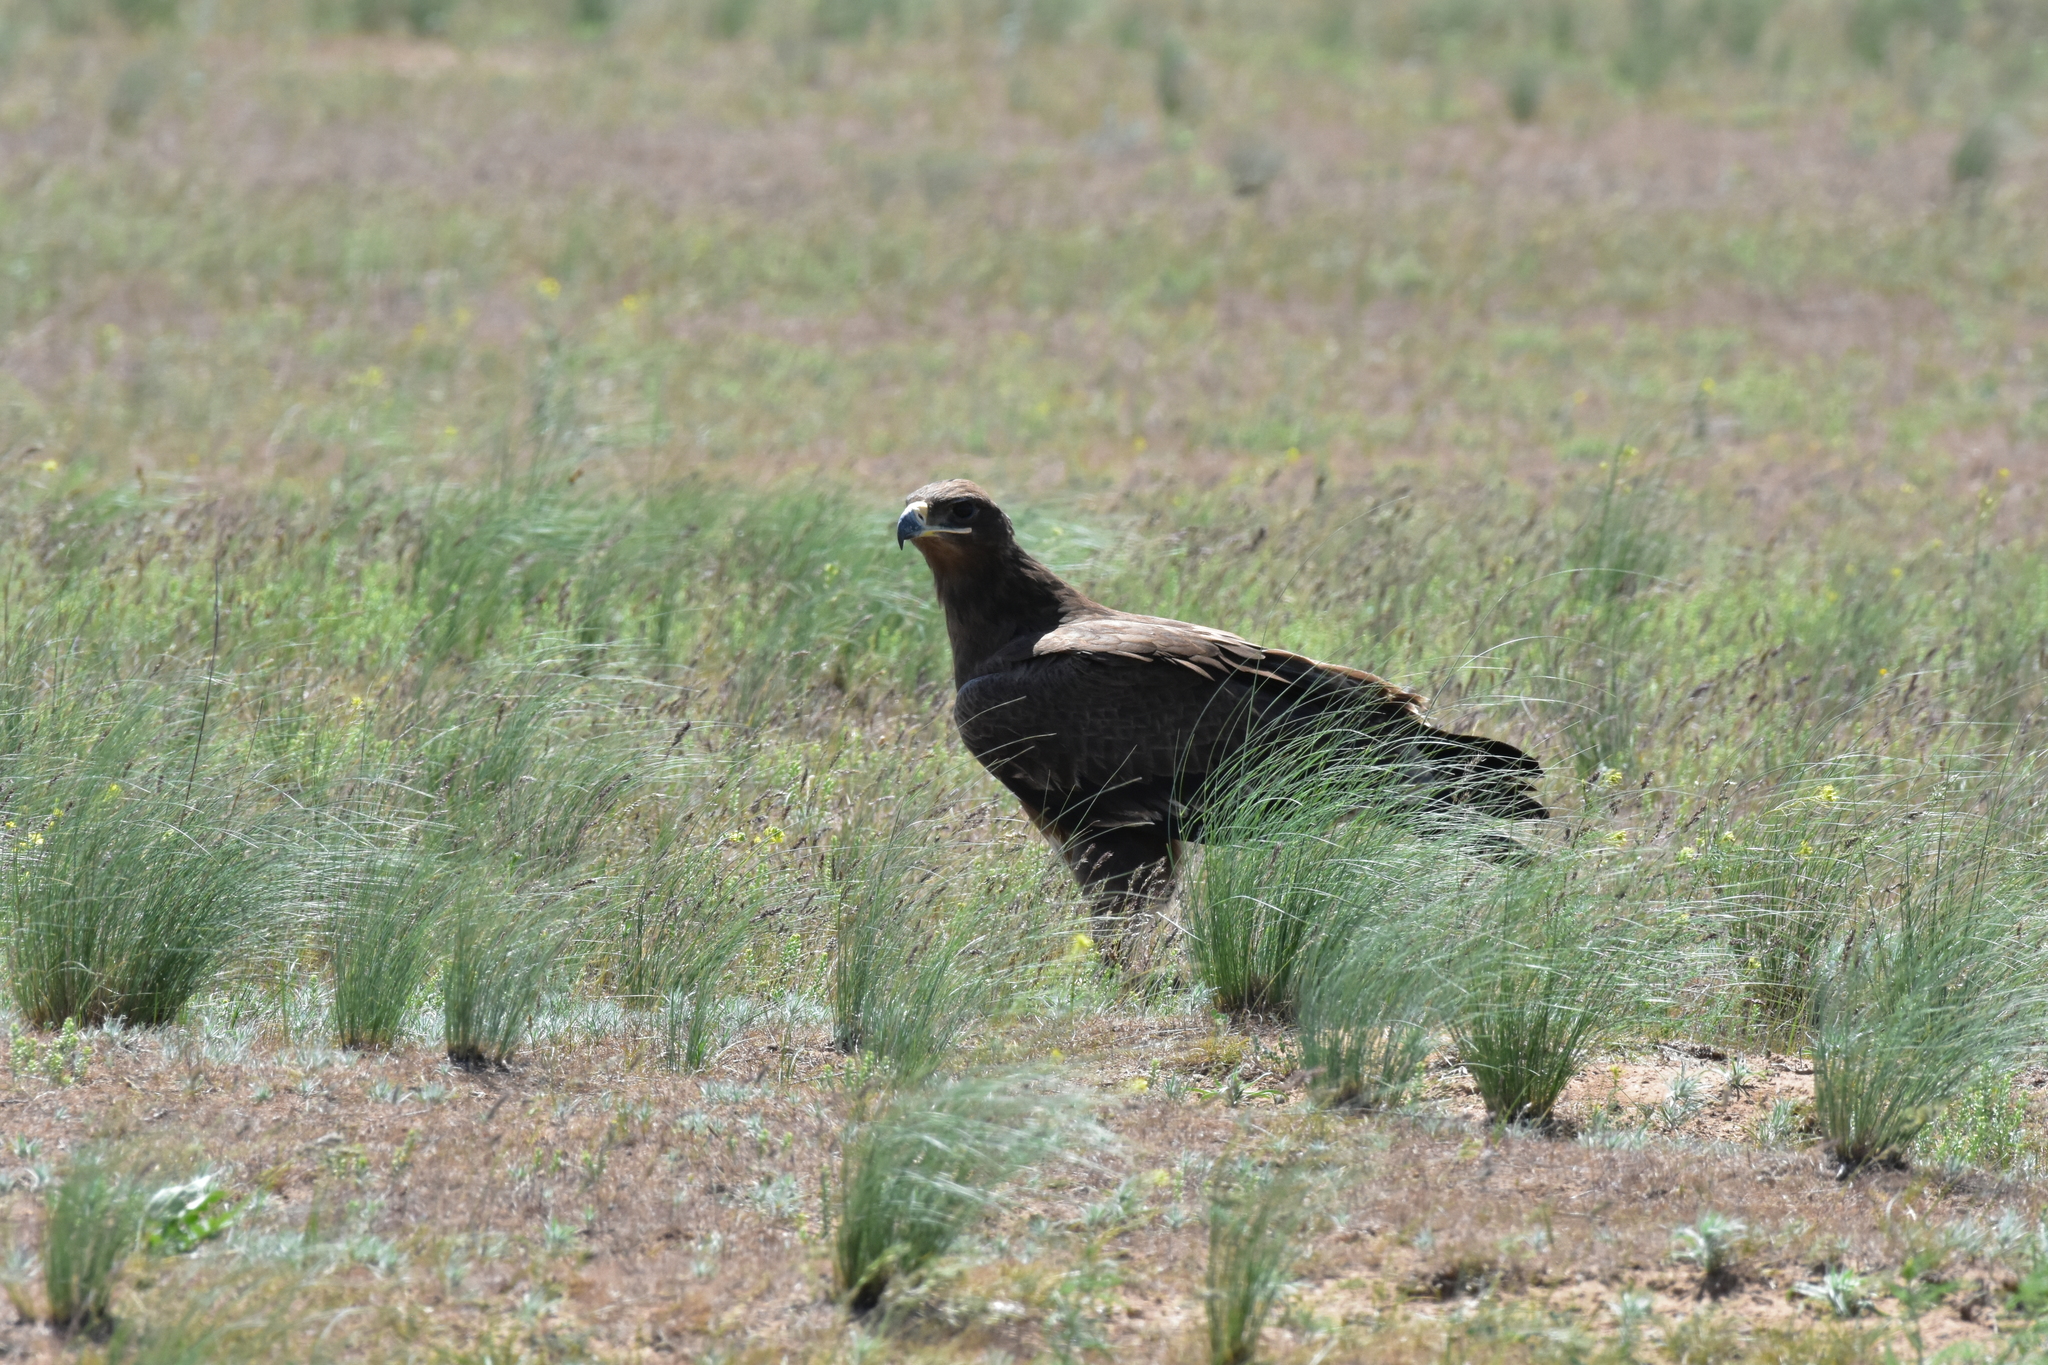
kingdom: Animalia
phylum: Chordata
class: Aves
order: Accipitriformes
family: Accipitridae
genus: Aquila
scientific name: Aquila nipalensis
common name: Steppe eagle
